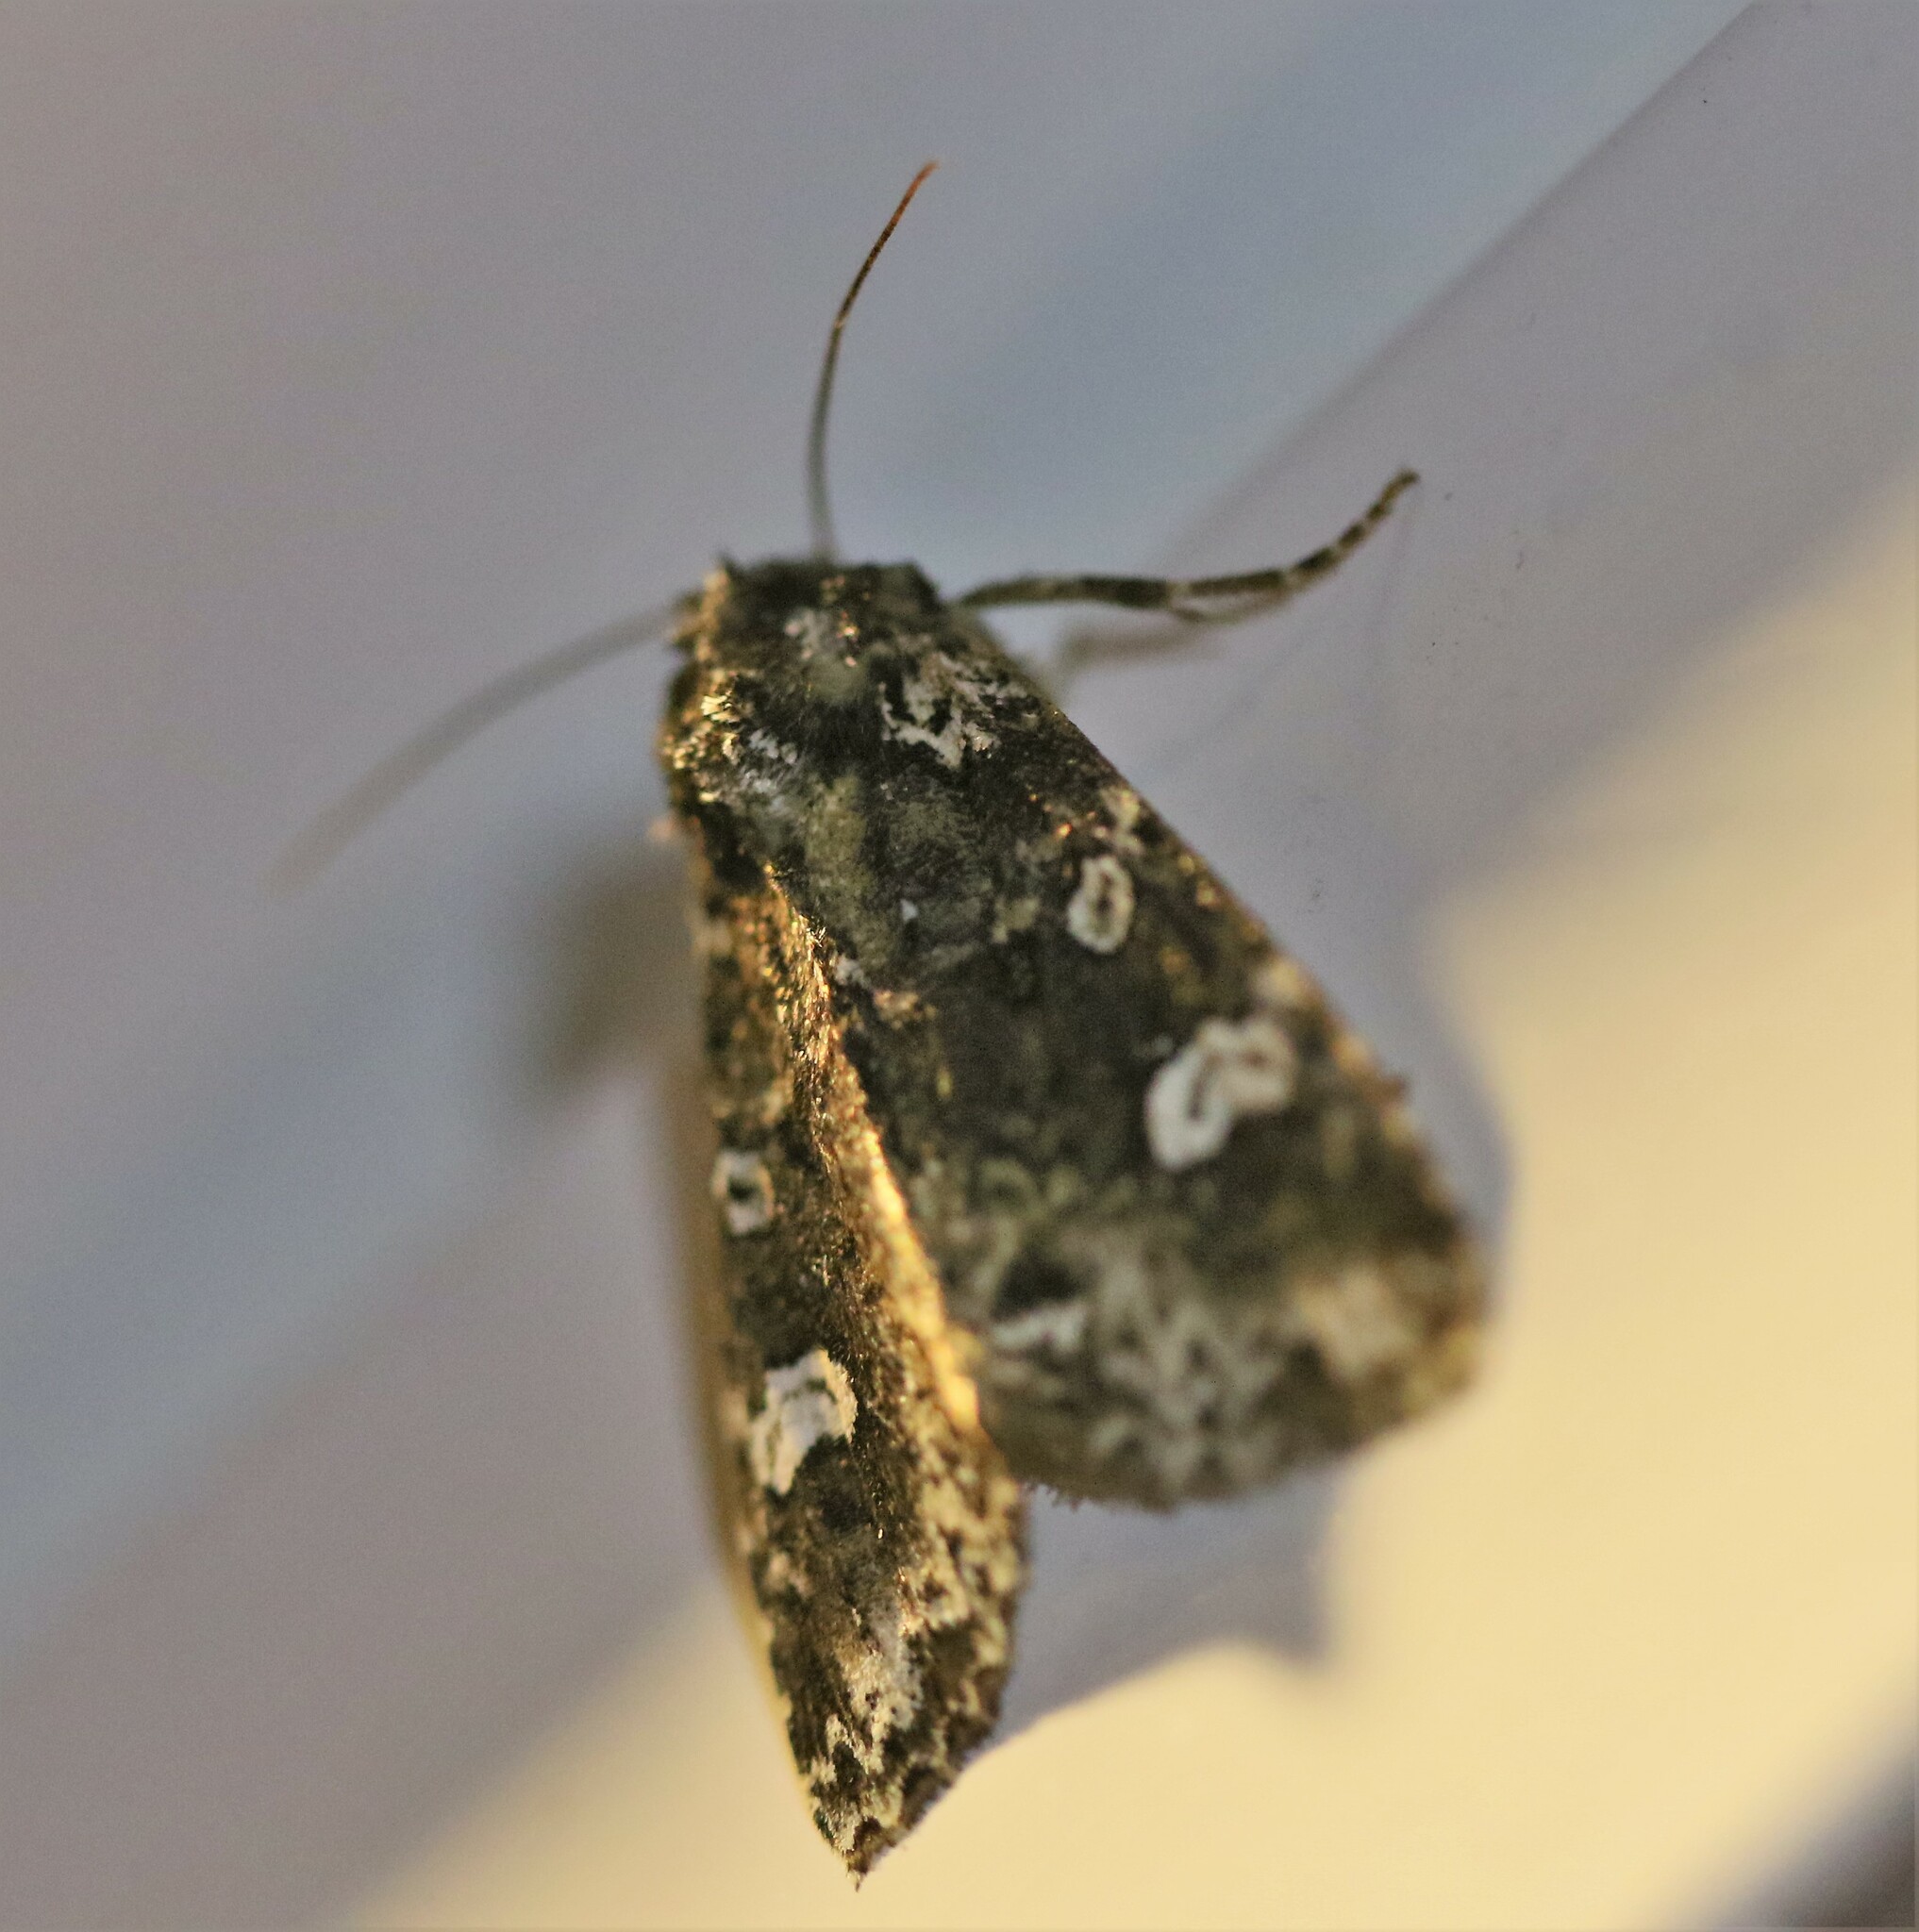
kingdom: Animalia
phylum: Arthropoda
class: Insecta
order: Lepidoptera
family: Noctuidae
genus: Melanchra
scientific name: Melanchra adjuncta
